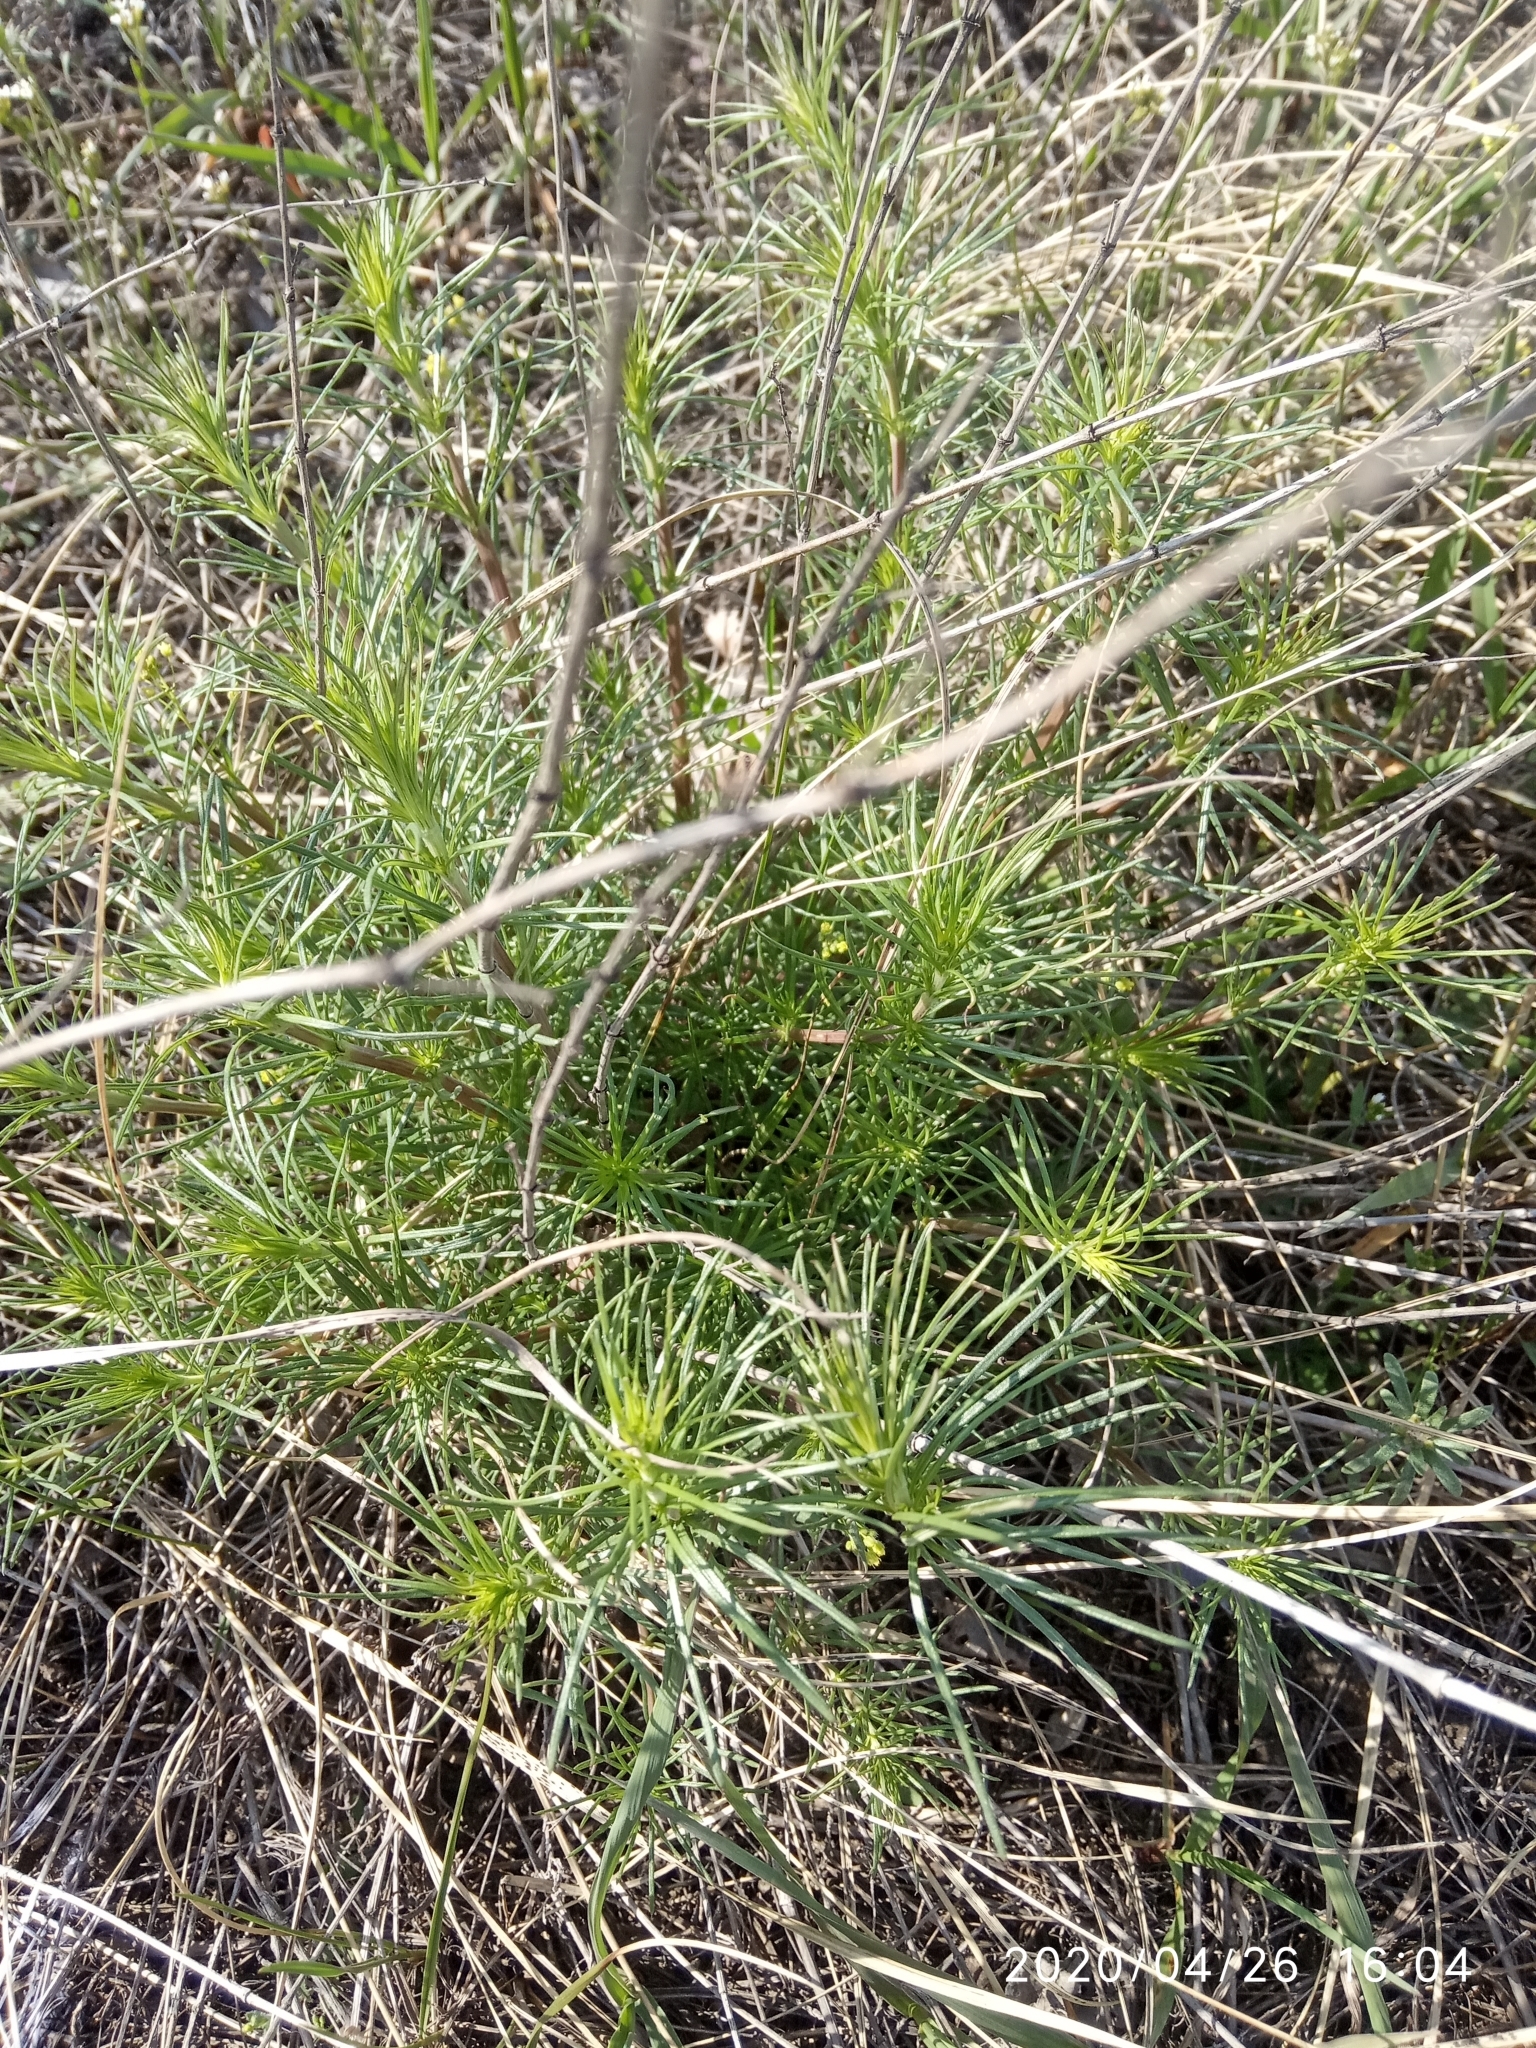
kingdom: Plantae
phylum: Tracheophyta
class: Magnoliopsida
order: Asterales
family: Asteraceae
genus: Artemisia
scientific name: Artemisia campestris
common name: Field wormwood
